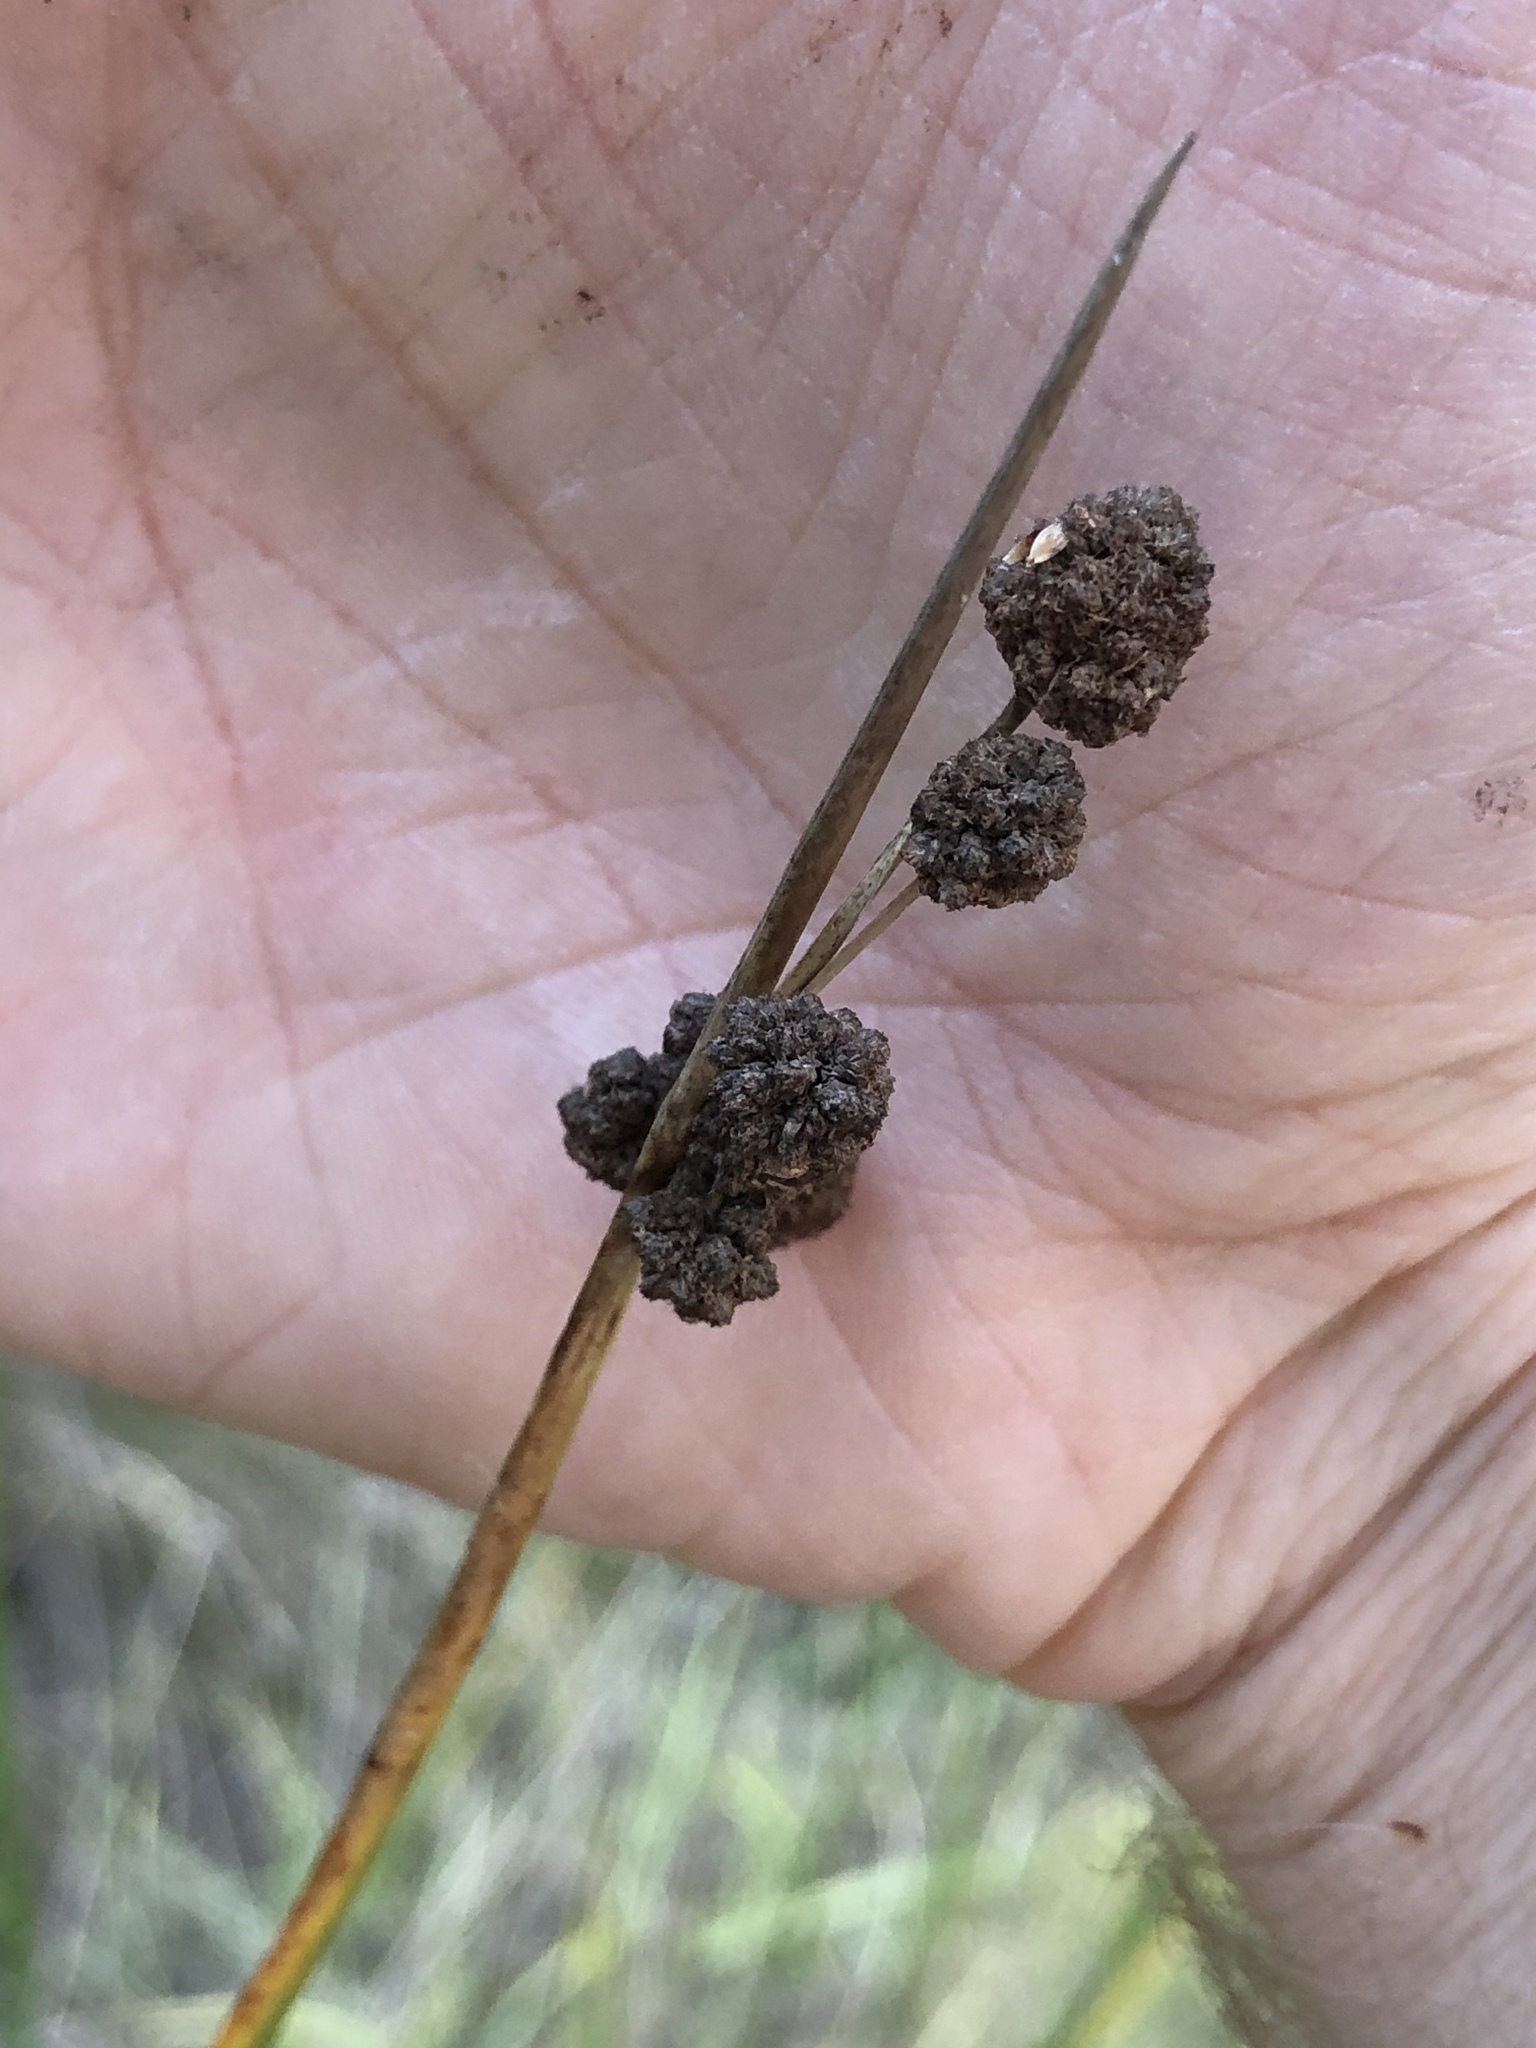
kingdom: Plantae
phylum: Tracheophyta
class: Liliopsida
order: Poales
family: Cyperaceae
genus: Scirpoides
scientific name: Scirpoides holoschoenus
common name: Round-headed club-rush
